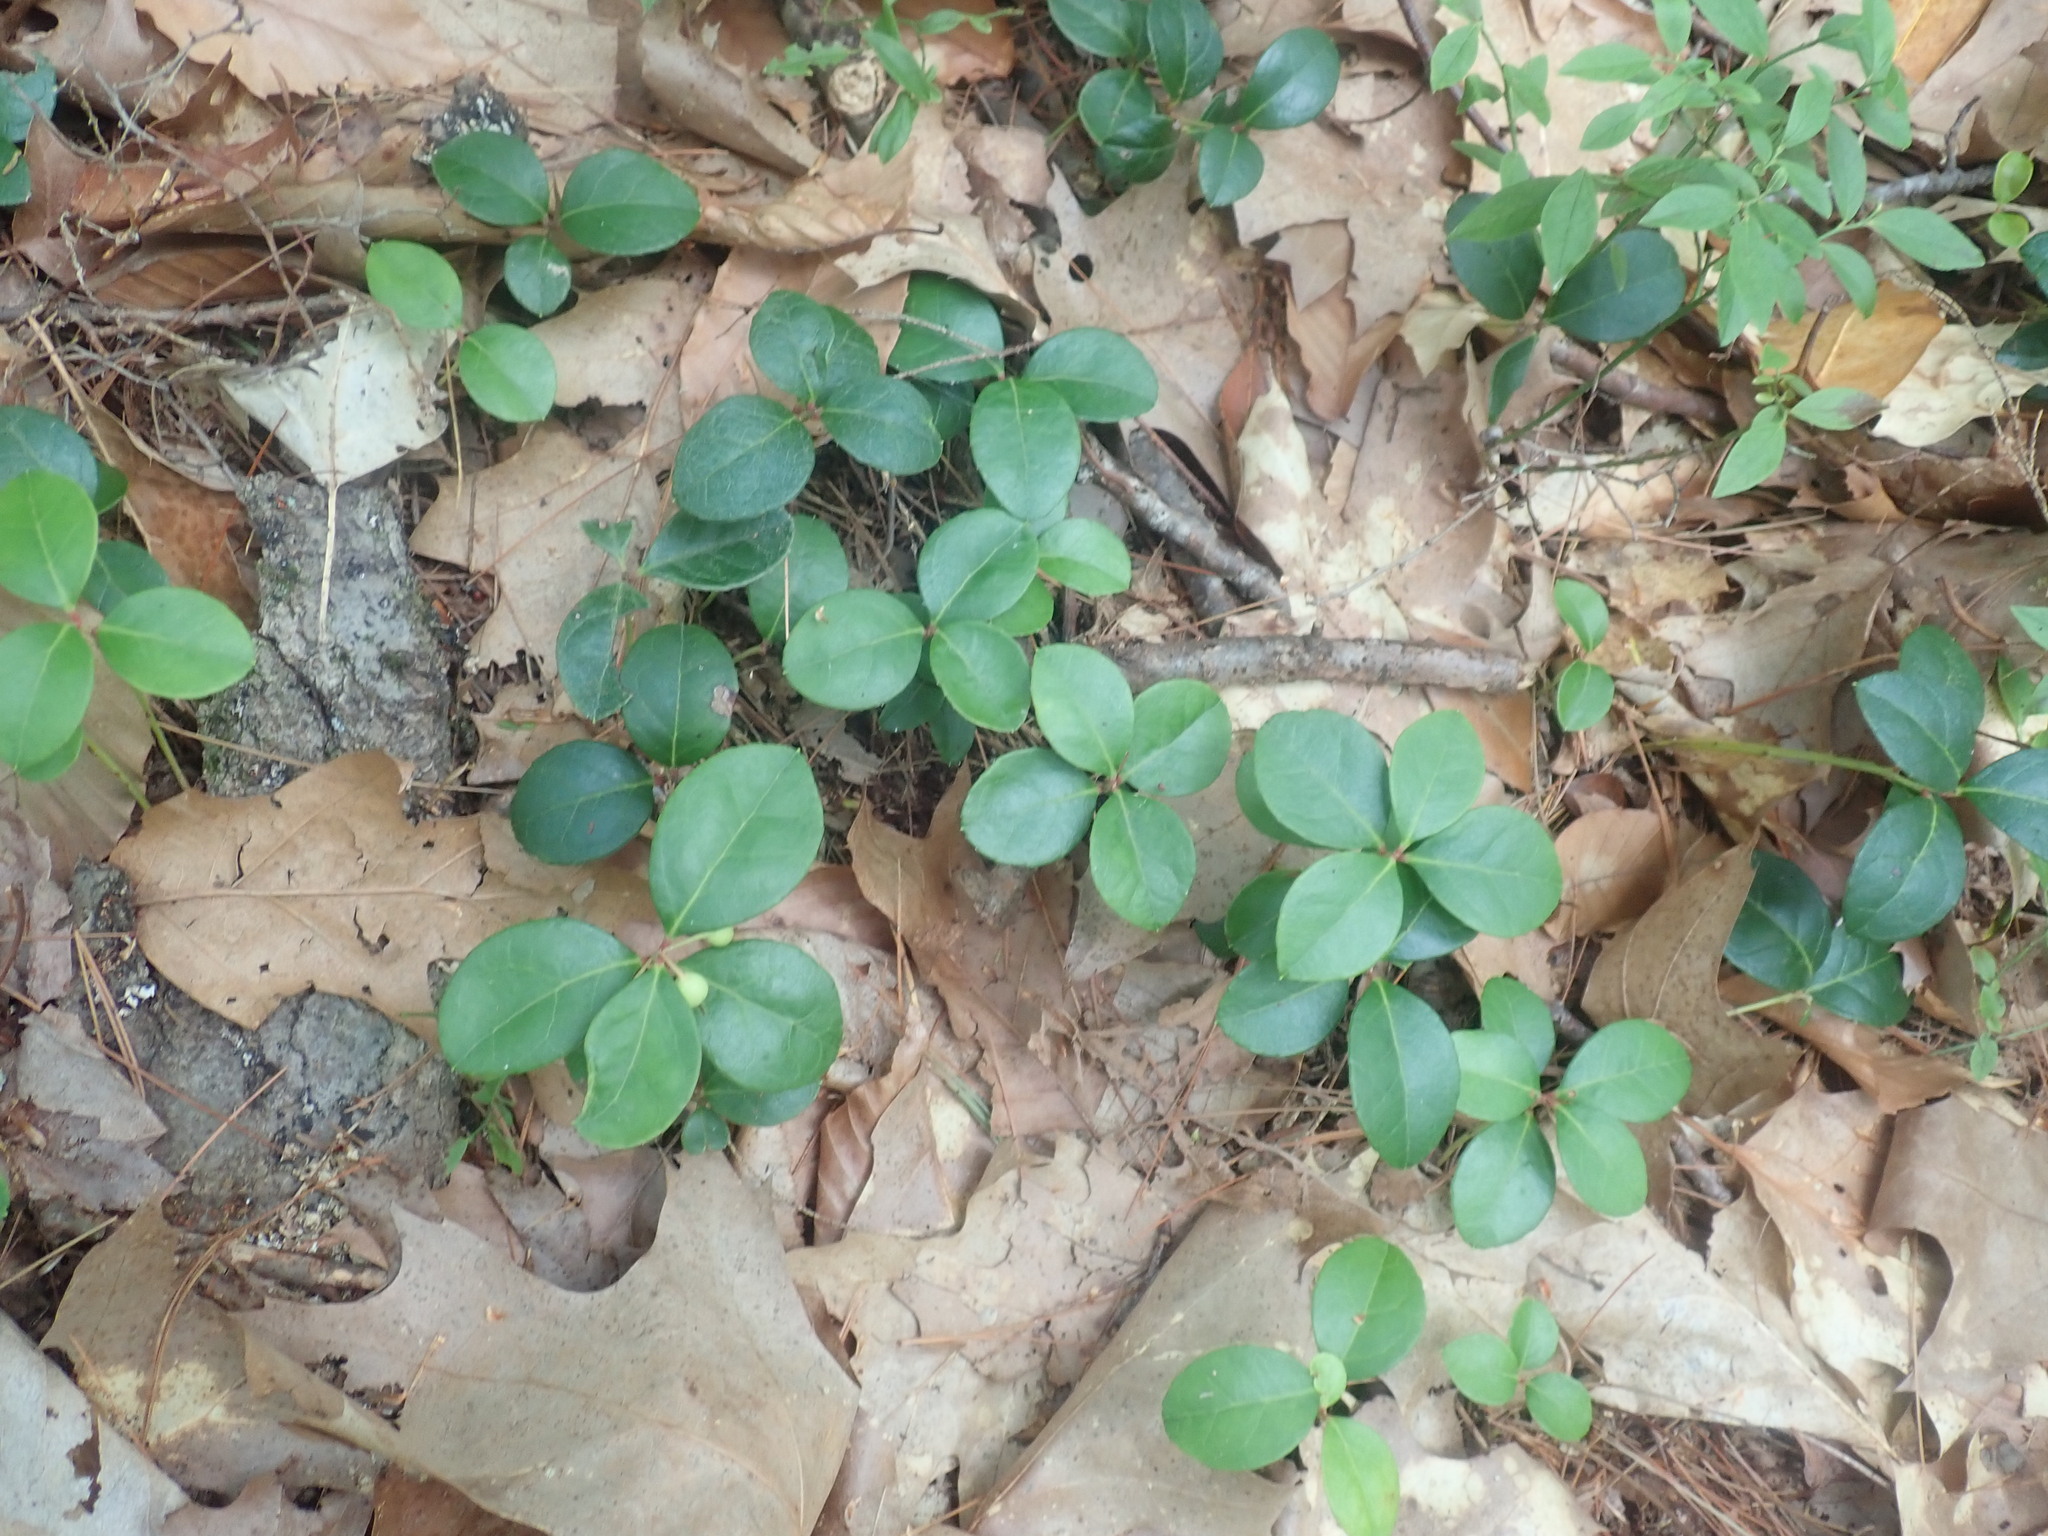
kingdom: Plantae
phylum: Tracheophyta
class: Magnoliopsida
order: Ericales
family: Ericaceae
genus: Gaultheria
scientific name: Gaultheria procumbens
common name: Checkerberry
